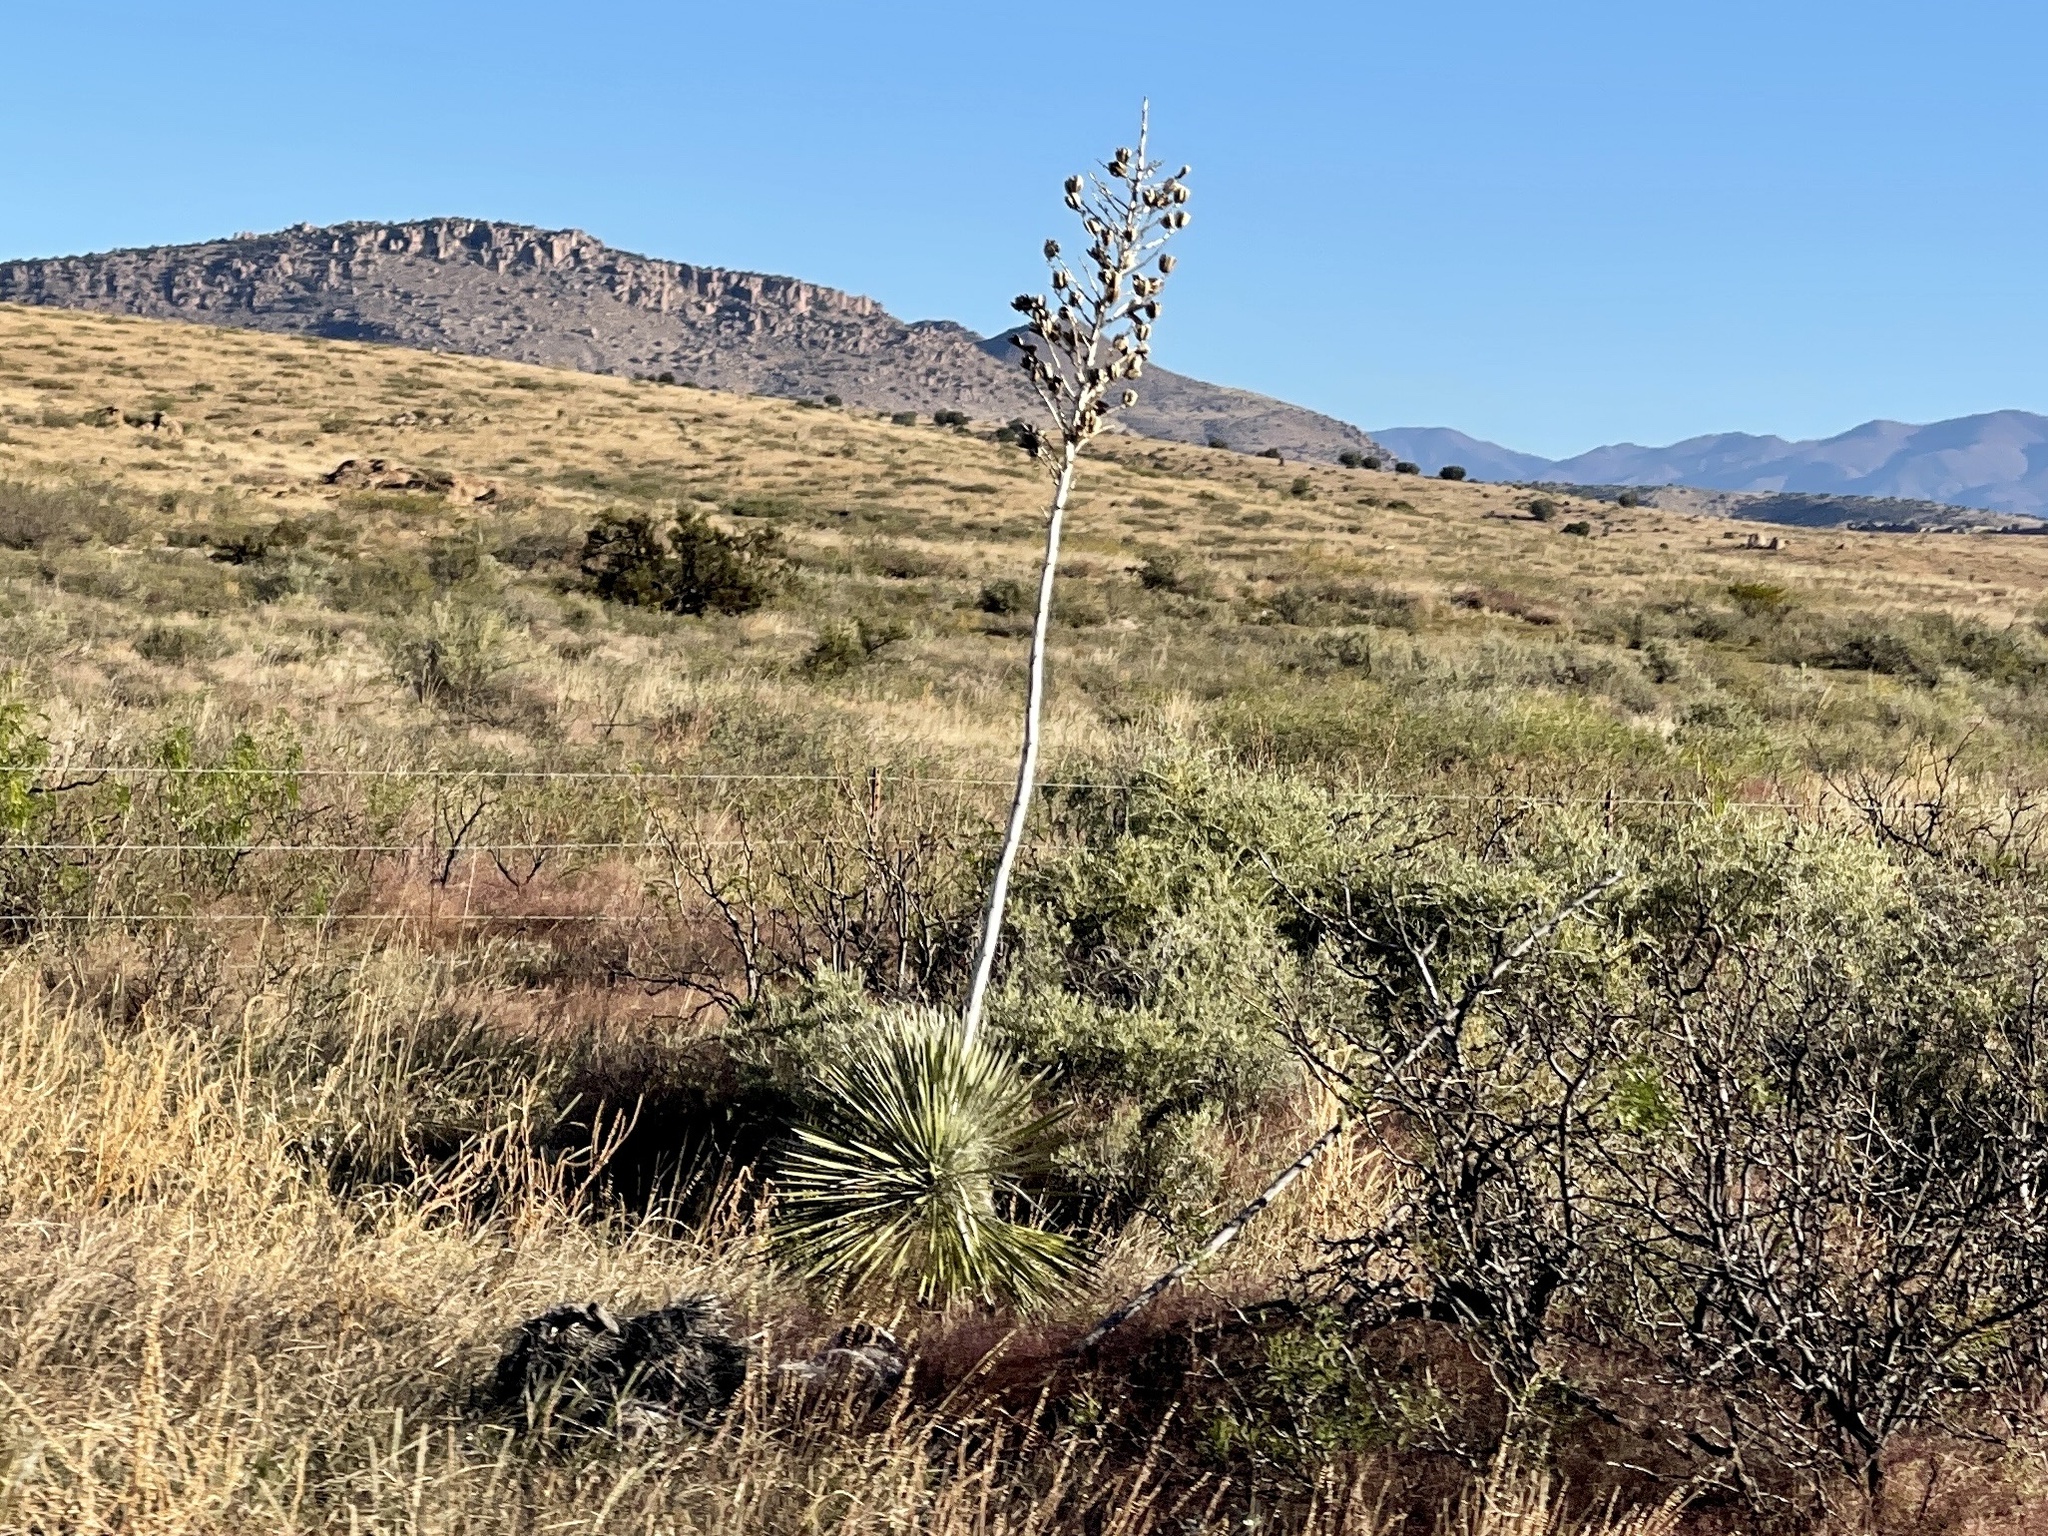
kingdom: Plantae
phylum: Tracheophyta
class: Liliopsida
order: Asparagales
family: Asparagaceae
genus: Yucca
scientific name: Yucca elata
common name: Palmella
